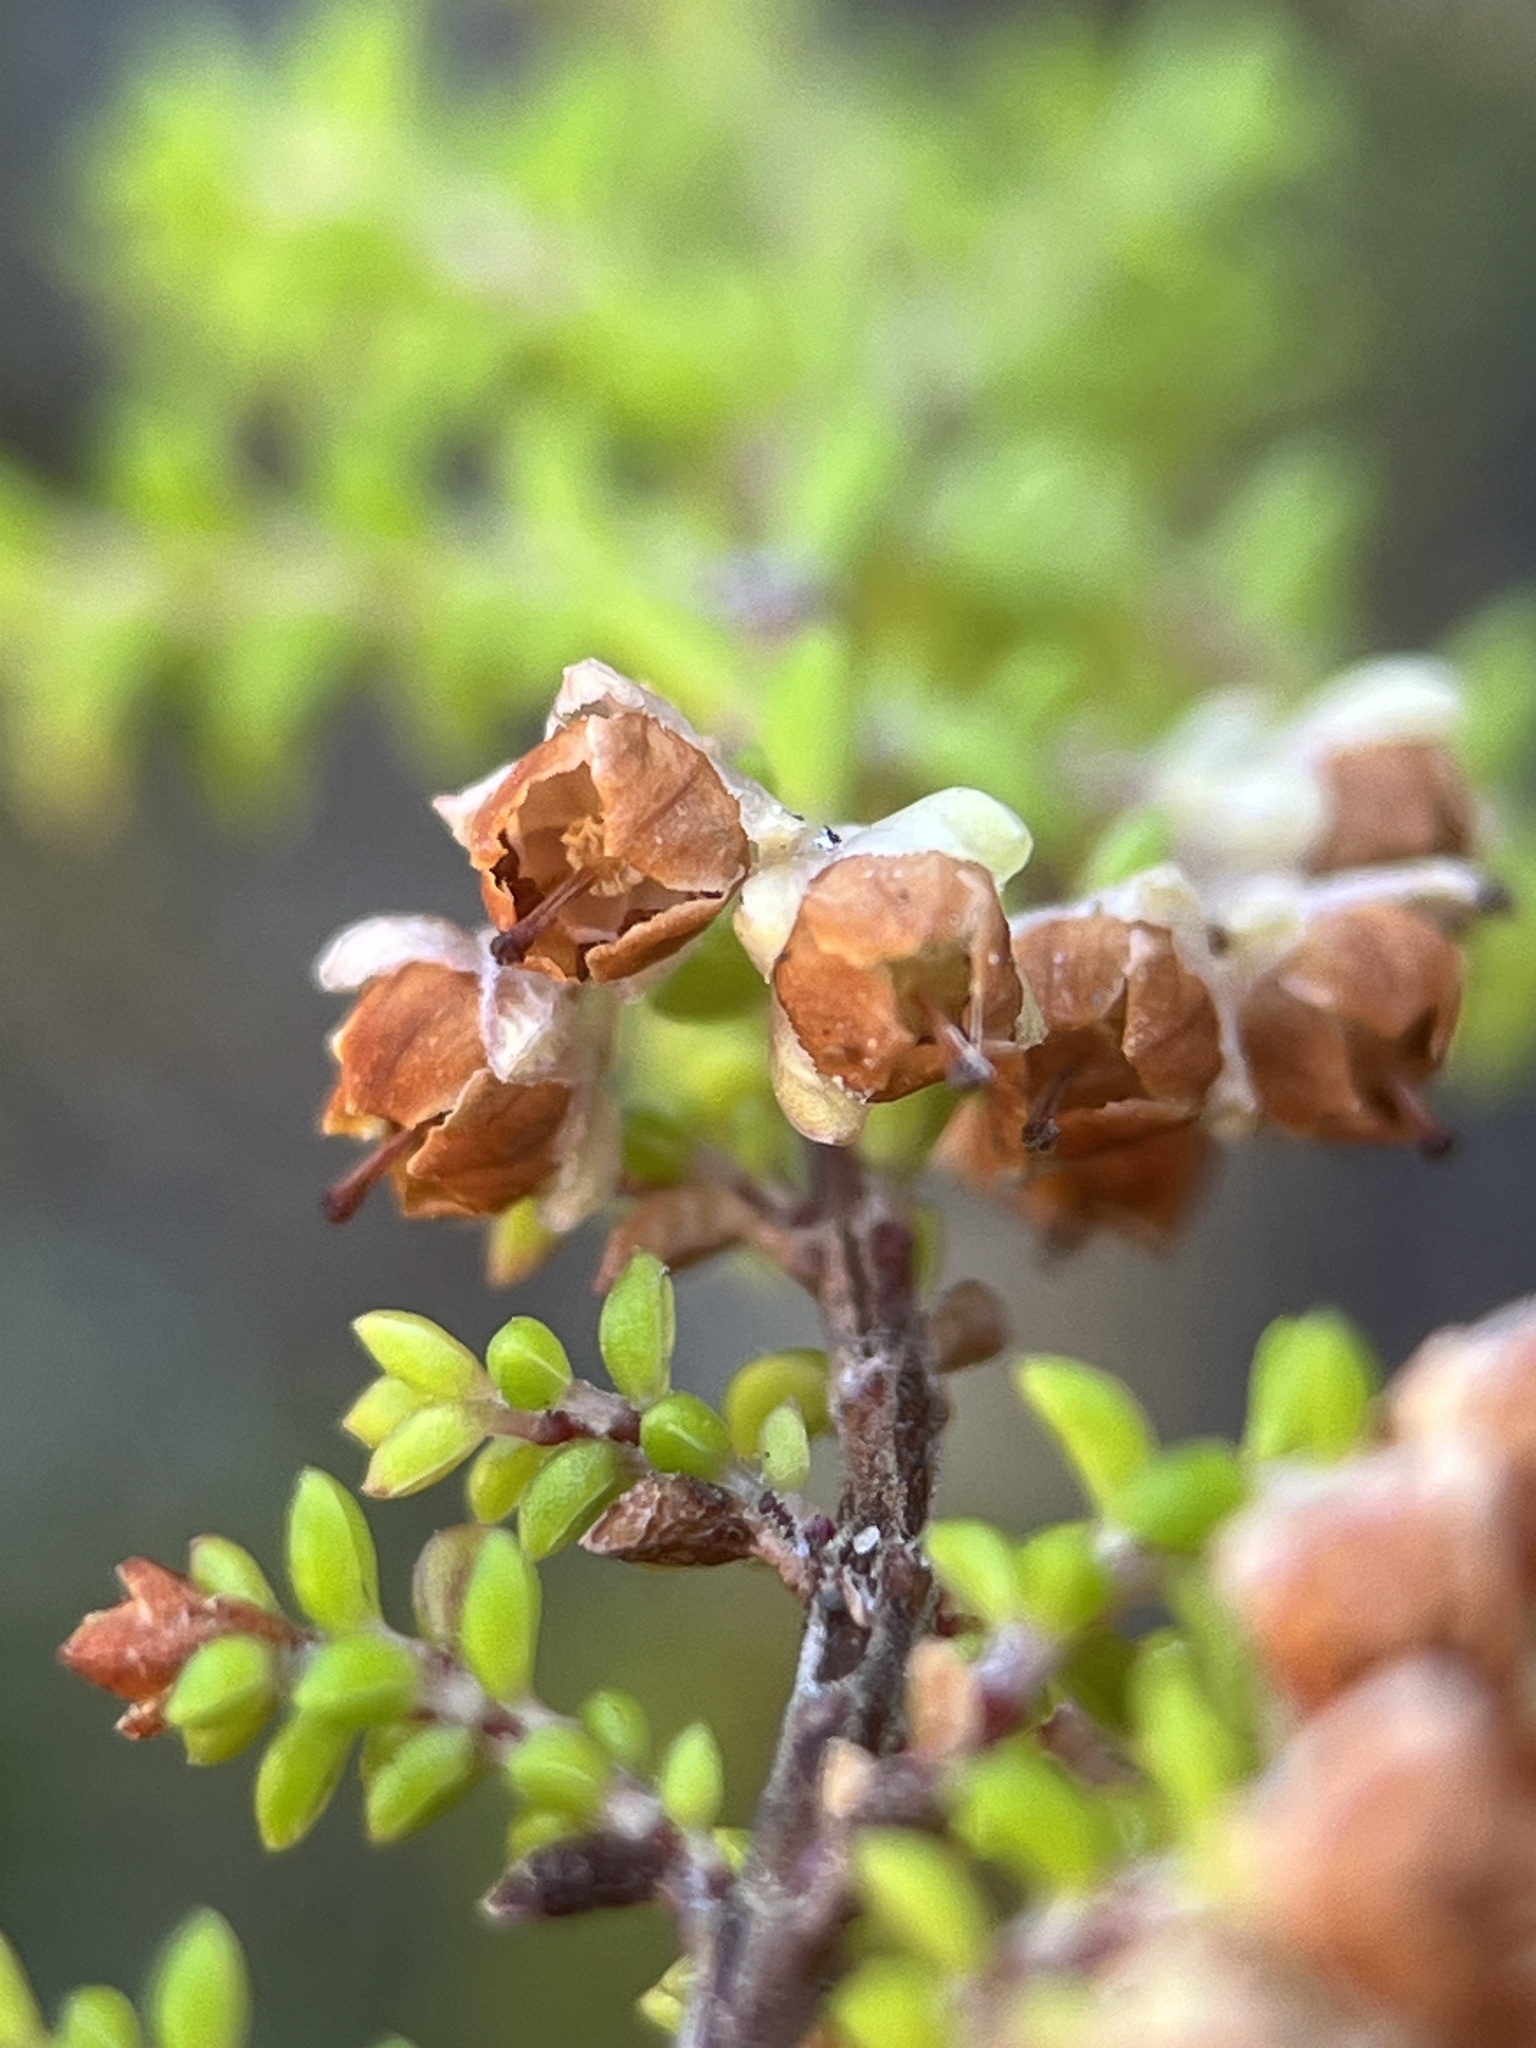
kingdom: Plantae
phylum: Tracheophyta
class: Magnoliopsida
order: Ericales
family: Ericaceae
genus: Erica
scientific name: Erica saxicola
